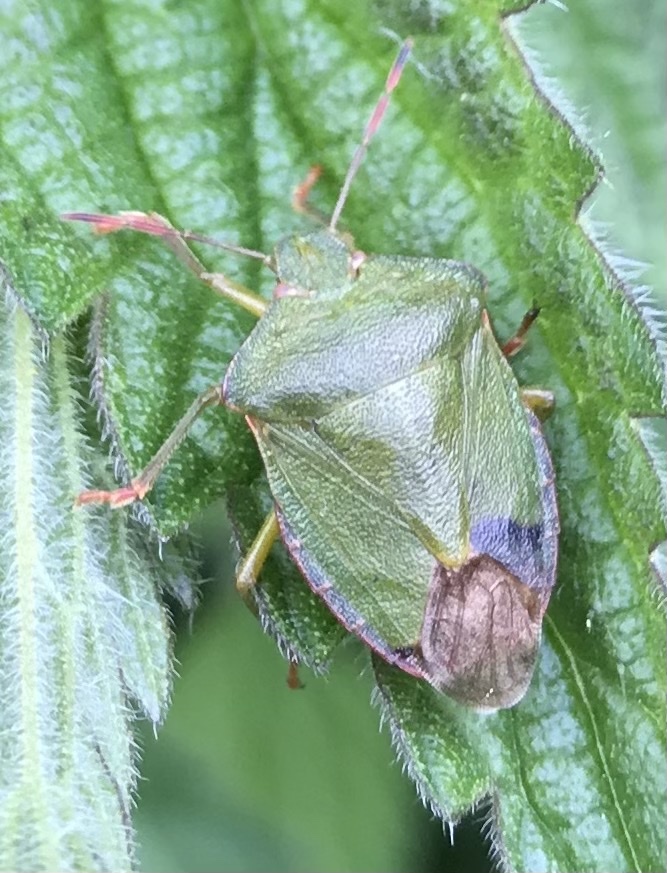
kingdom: Animalia
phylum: Arthropoda
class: Insecta
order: Hemiptera
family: Pentatomidae
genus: Palomena
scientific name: Palomena prasina
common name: Green shieldbug
